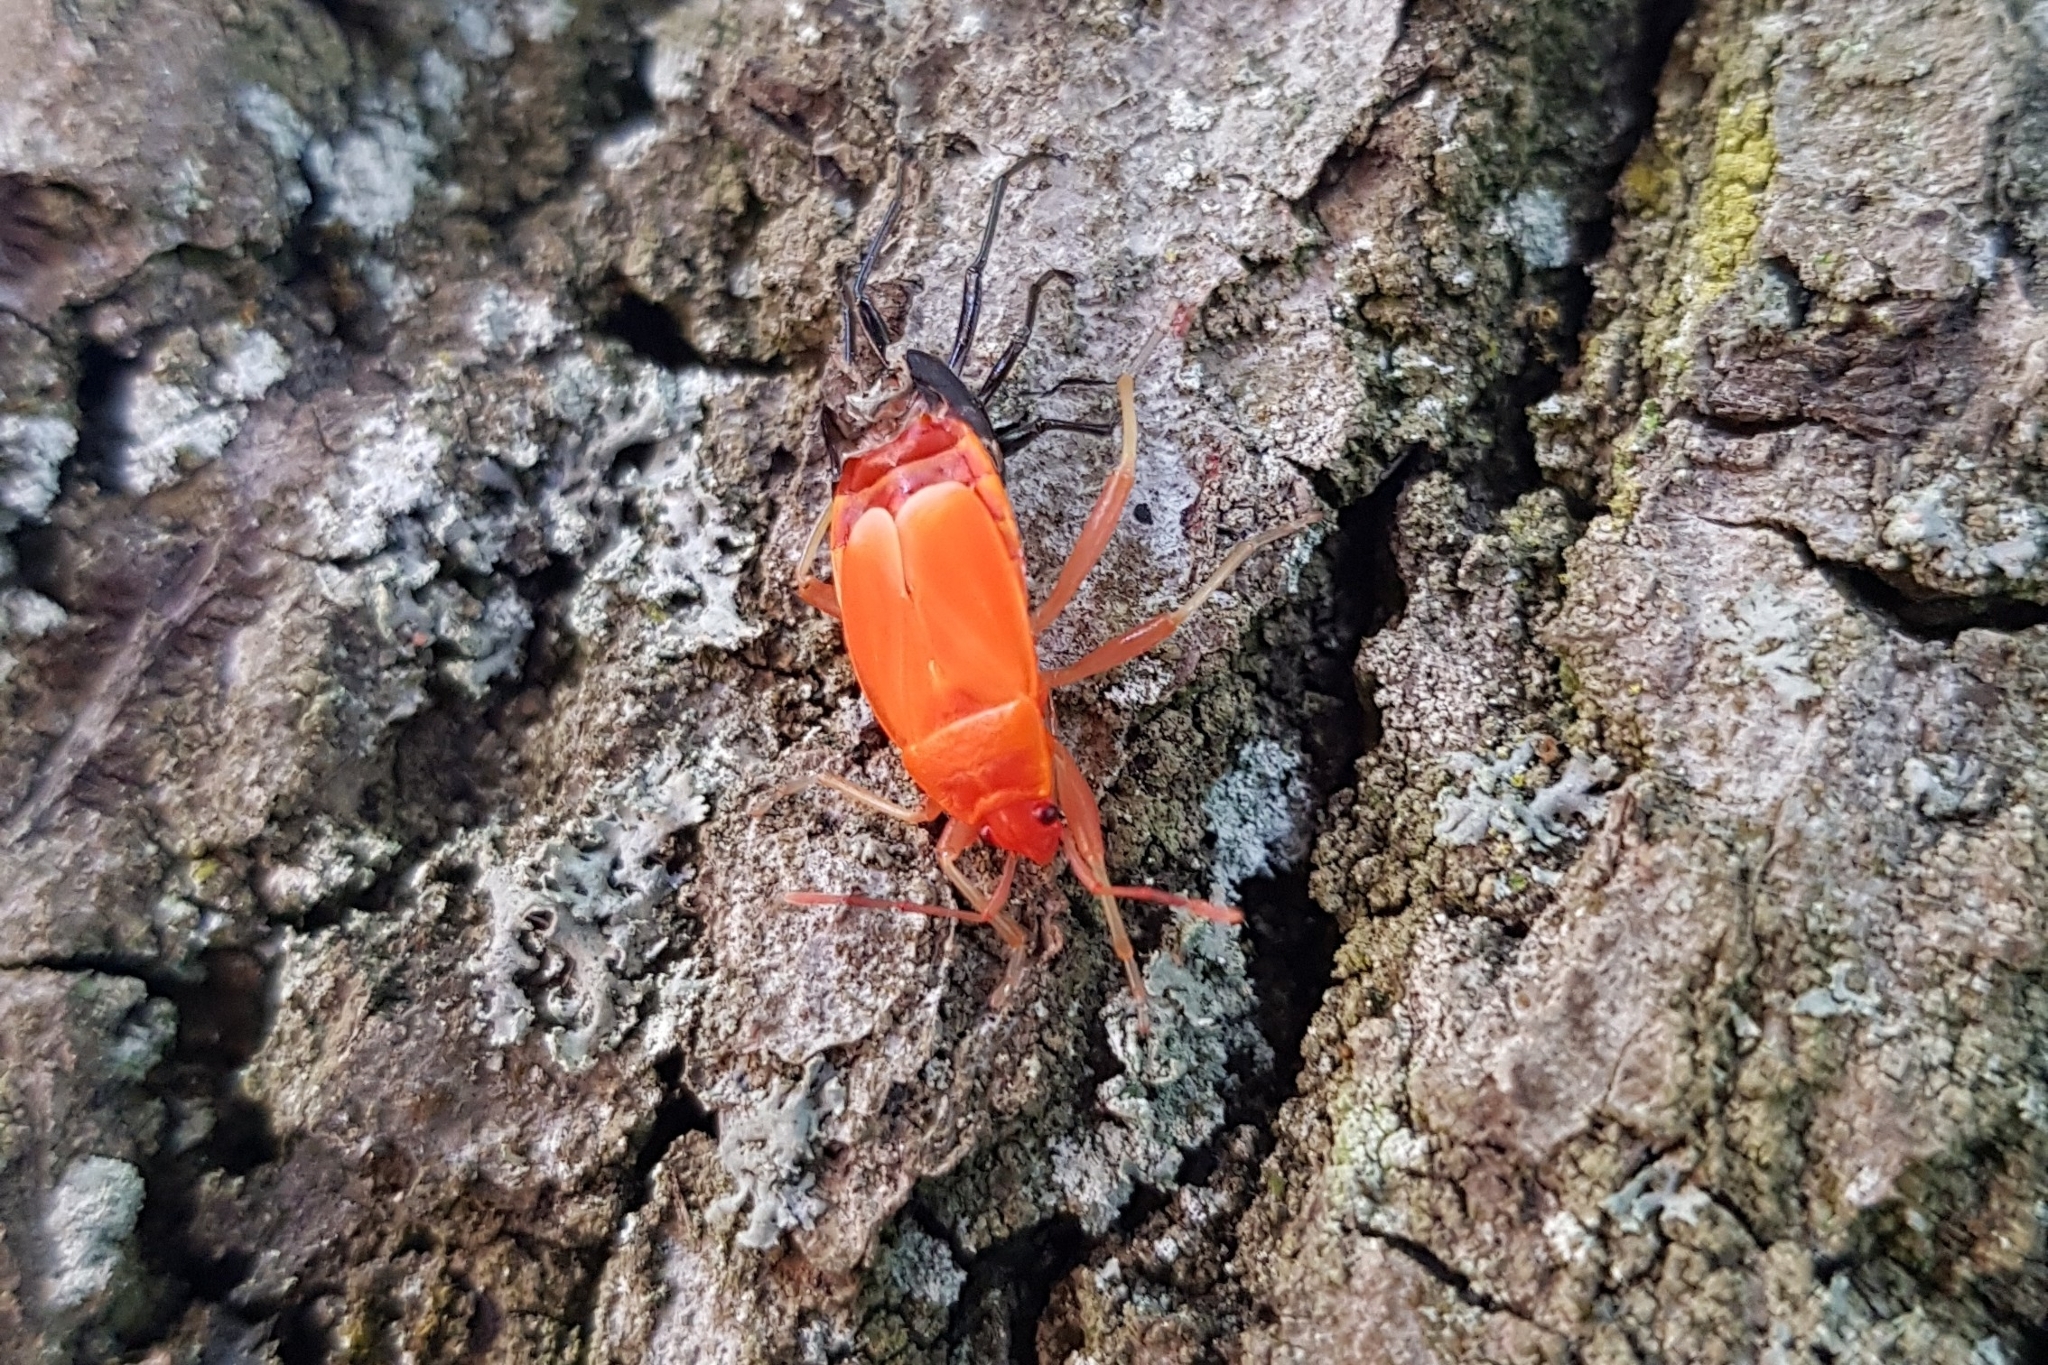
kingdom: Animalia
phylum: Arthropoda
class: Insecta
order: Hemiptera
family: Pyrrhocoridae
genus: Pyrrhocoris
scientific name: Pyrrhocoris apterus
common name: Firebug
